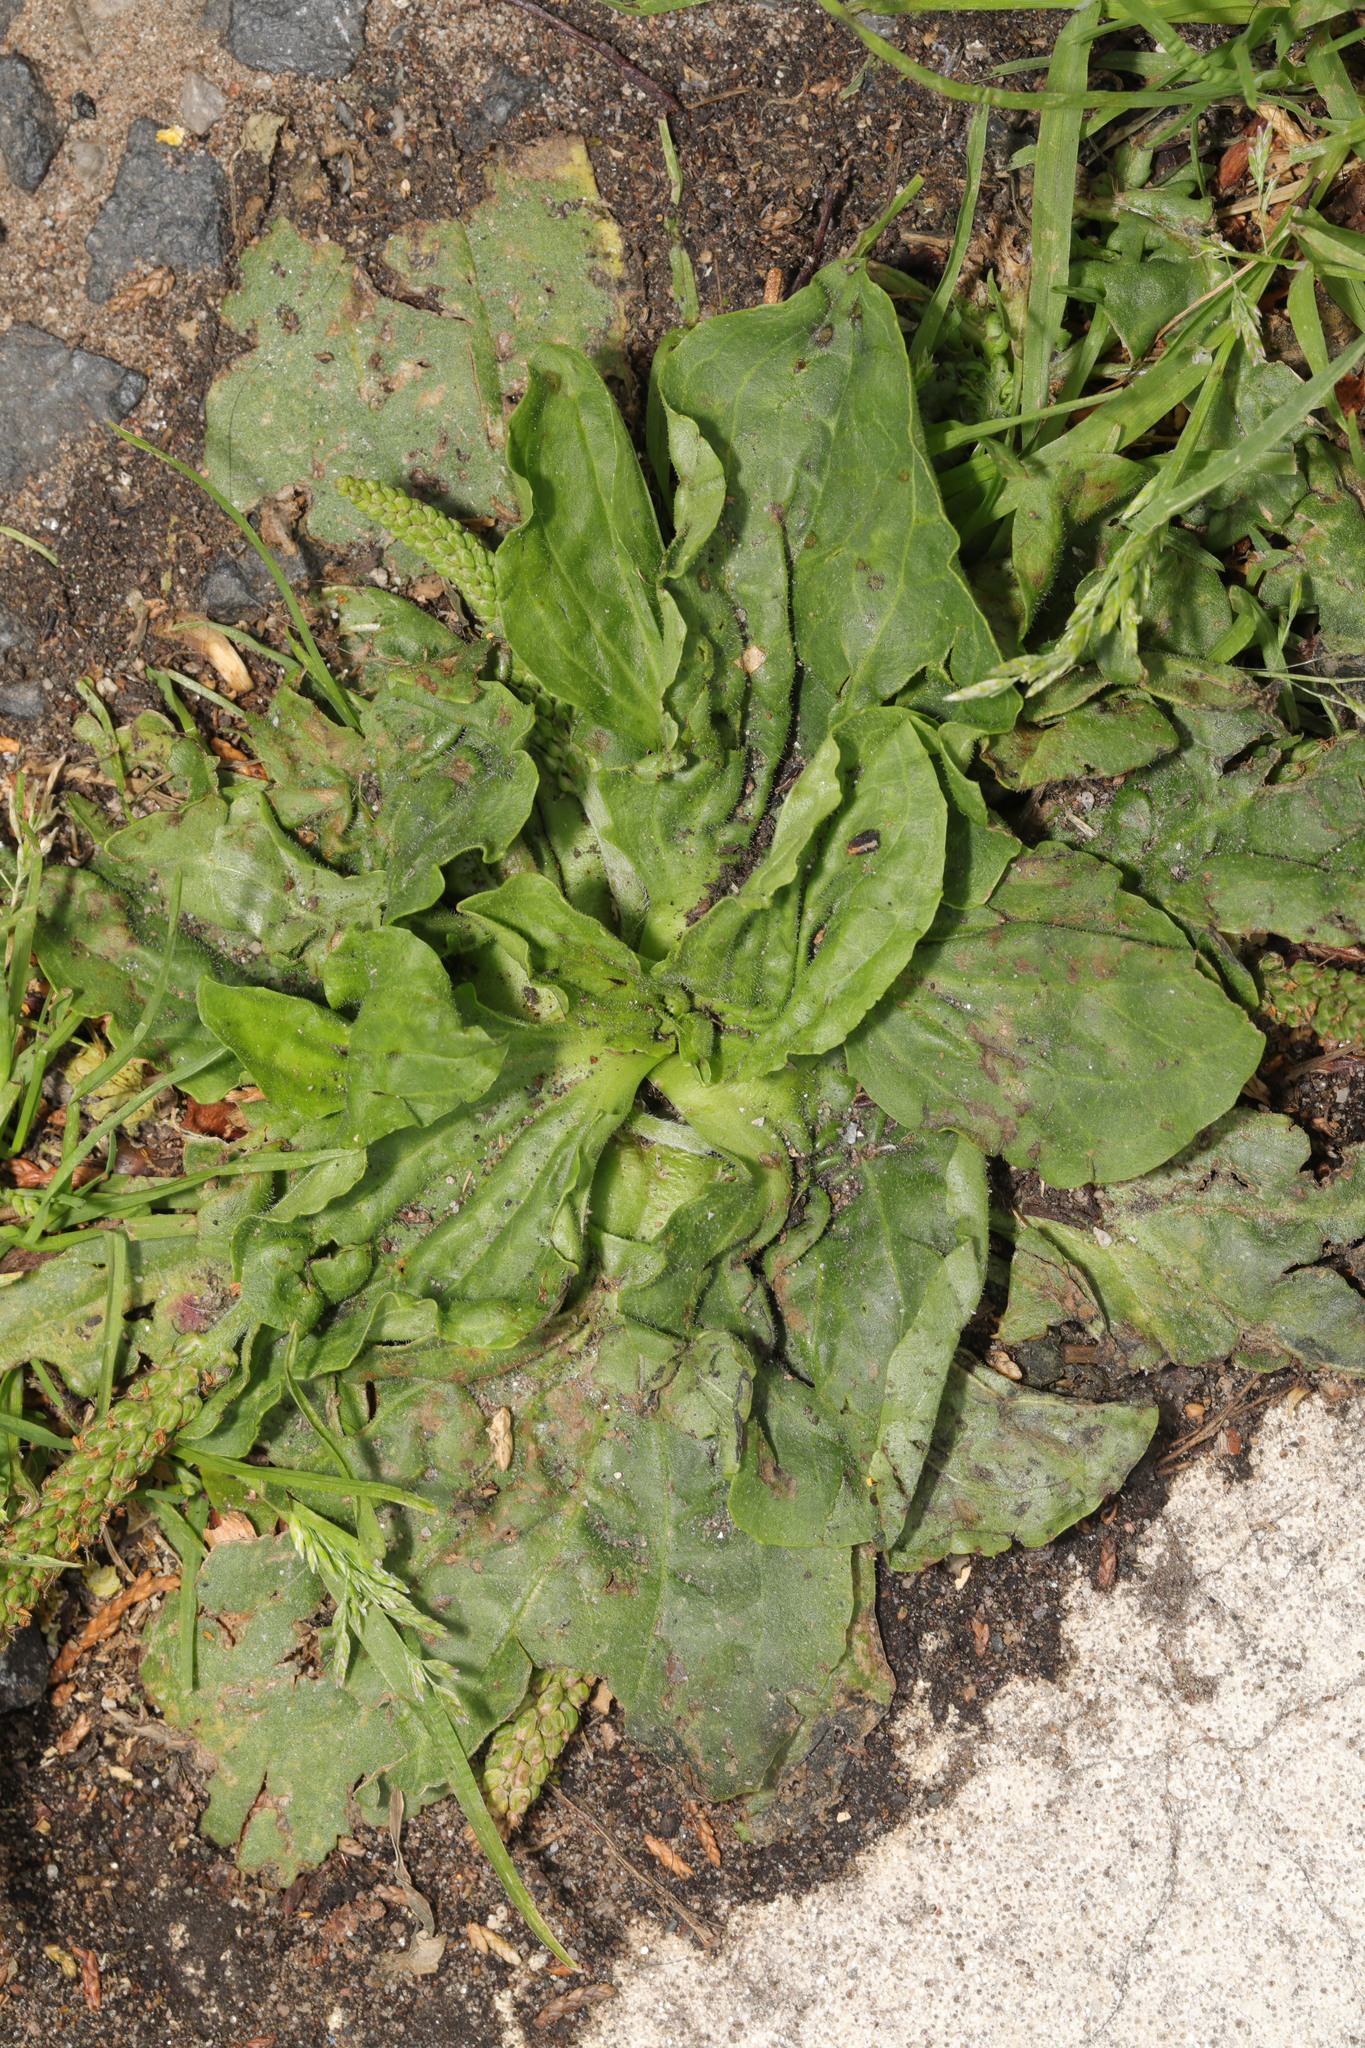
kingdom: Plantae
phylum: Tracheophyta
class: Magnoliopsida
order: Lamiales
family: Plantaginaceae
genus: Plantago
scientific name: Plantago major
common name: Common plantain
